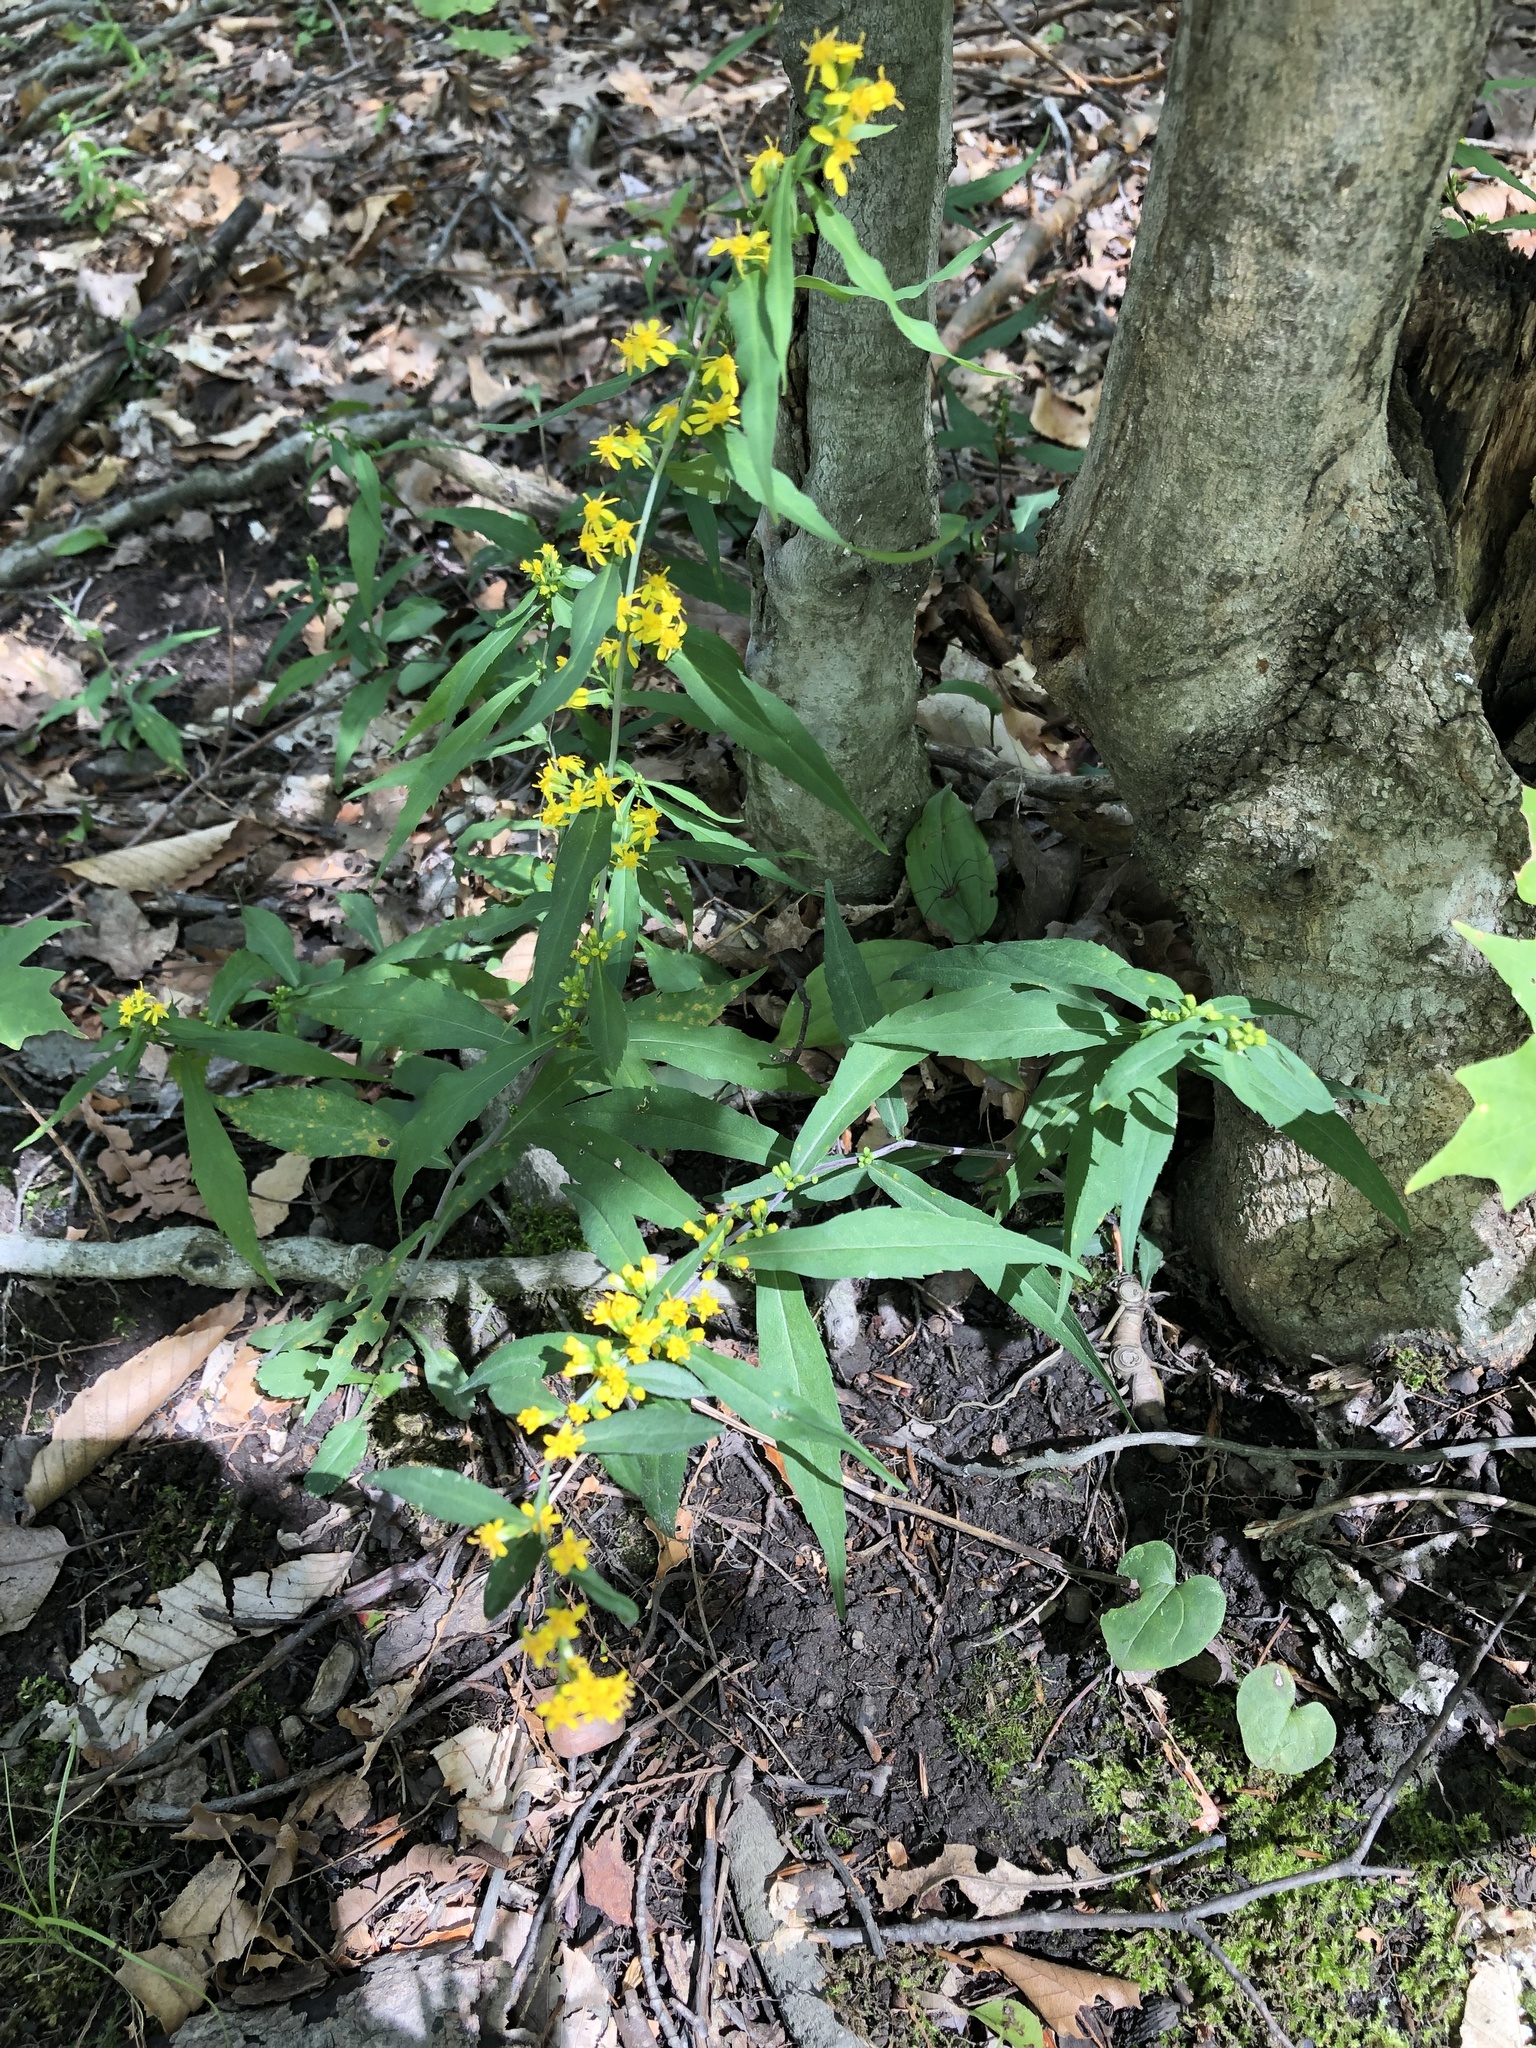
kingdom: Plantae
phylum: Tracheophyta
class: Magnoliopsida
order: Asterales
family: Asteraceae
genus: Solidago
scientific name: Solidago caesia
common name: Woodland goldenrod
